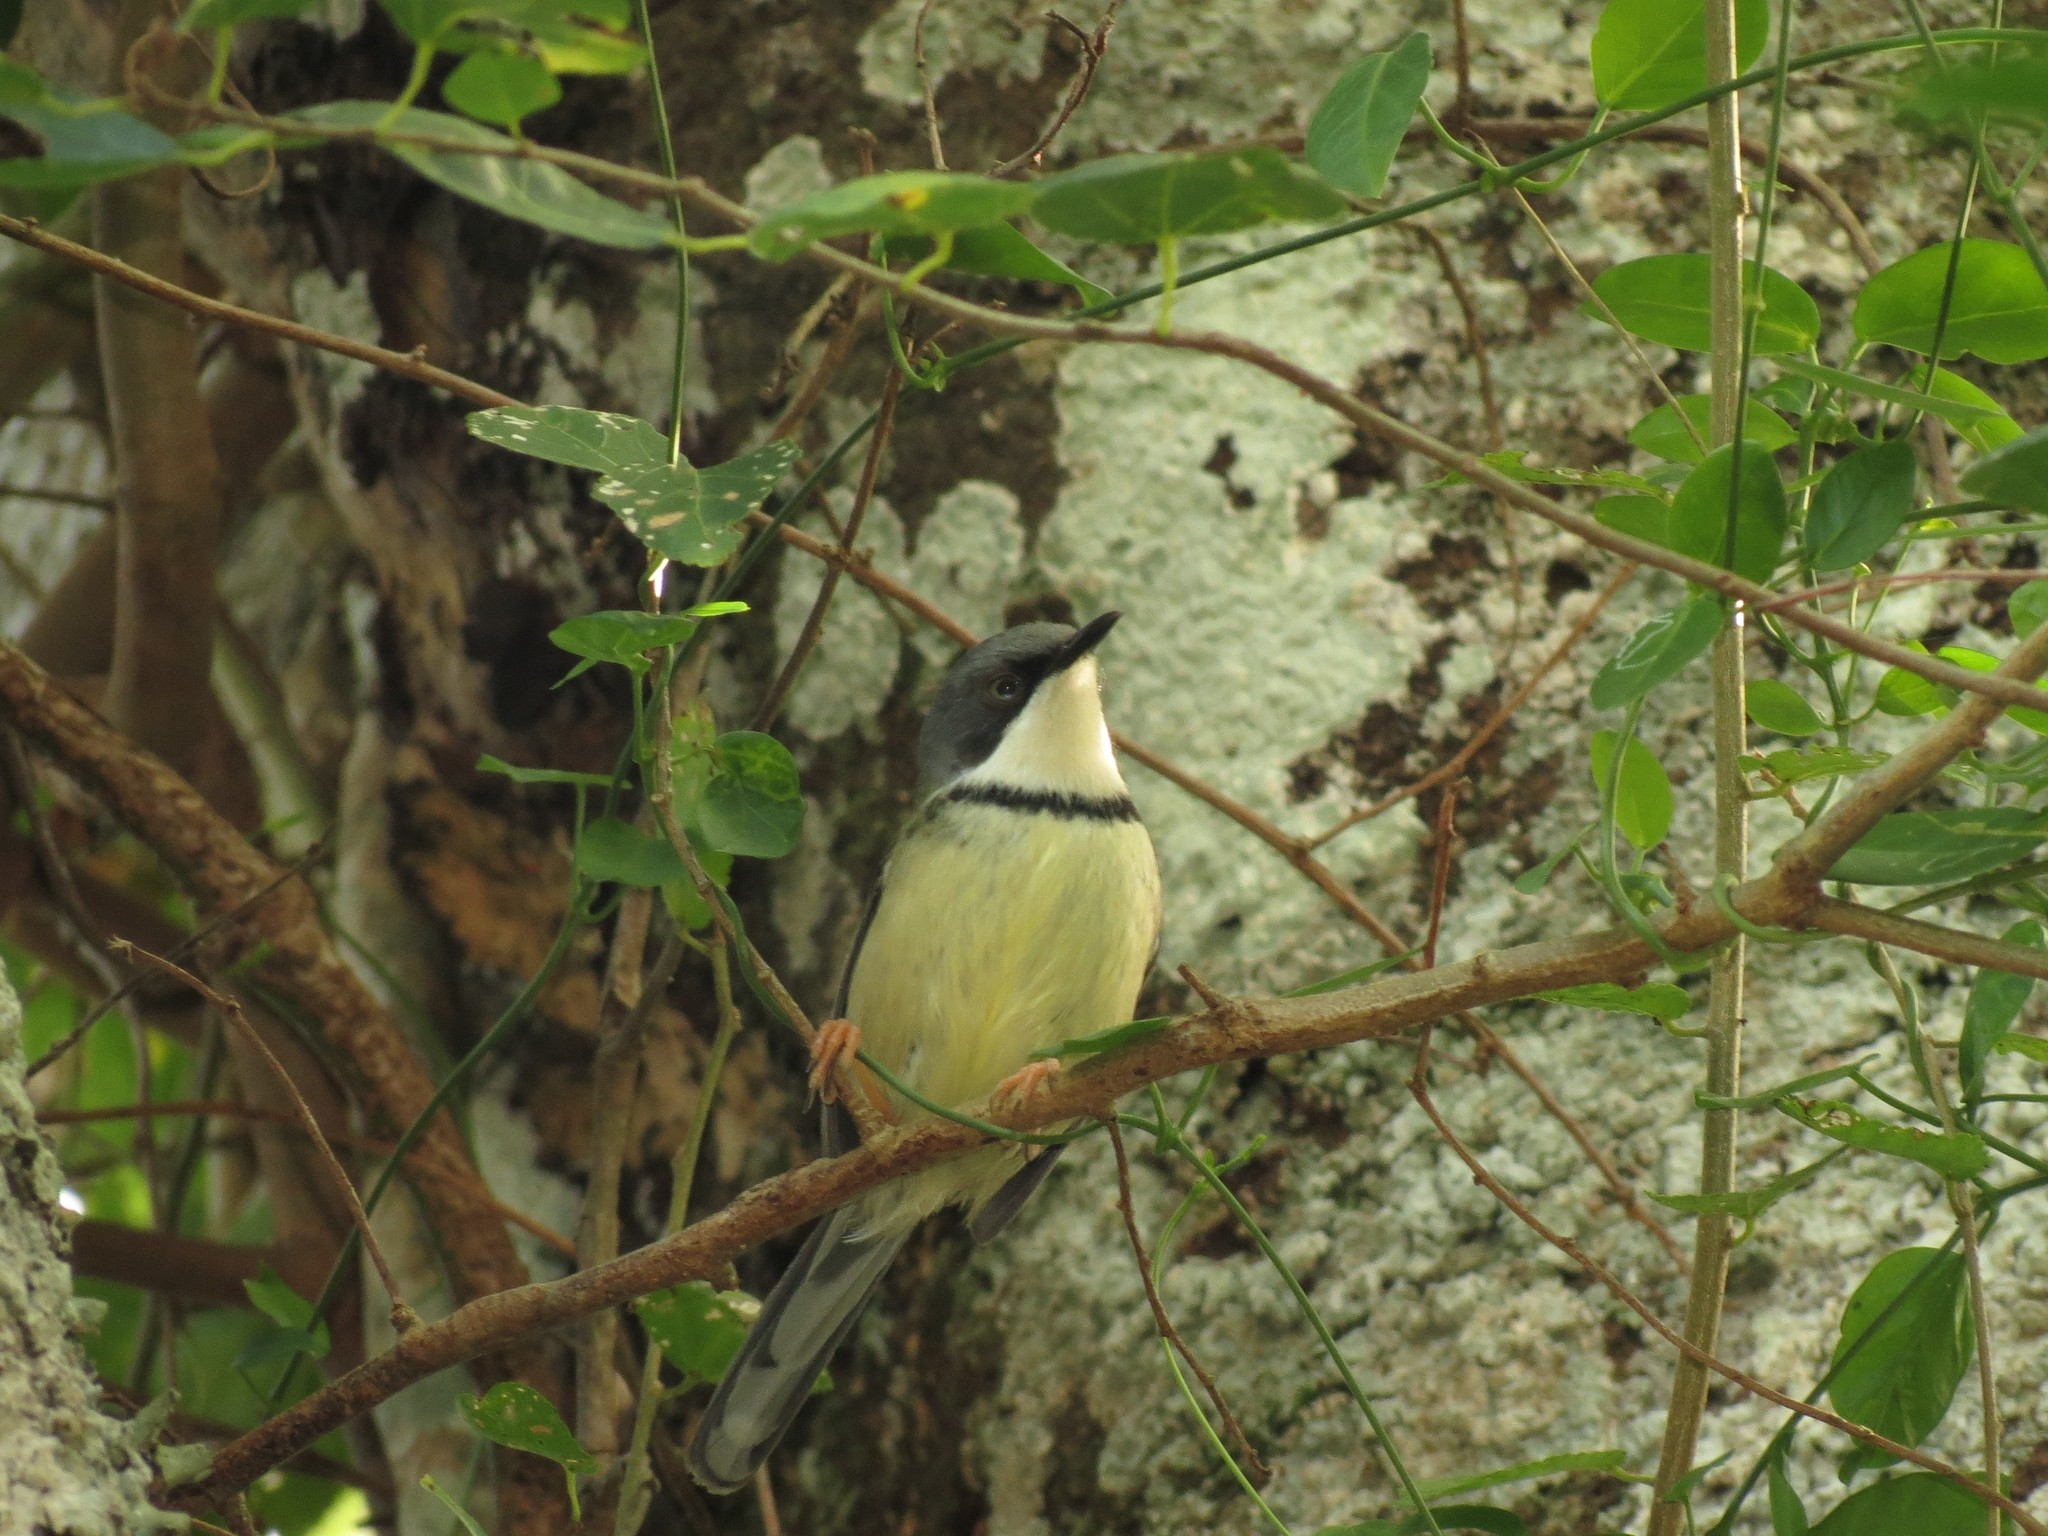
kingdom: Animalia
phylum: Chordata
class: Aves
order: Passeriformes
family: Cisticolidae
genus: Apalis
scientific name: Apalis thoracica
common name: Bar-throated apalis
